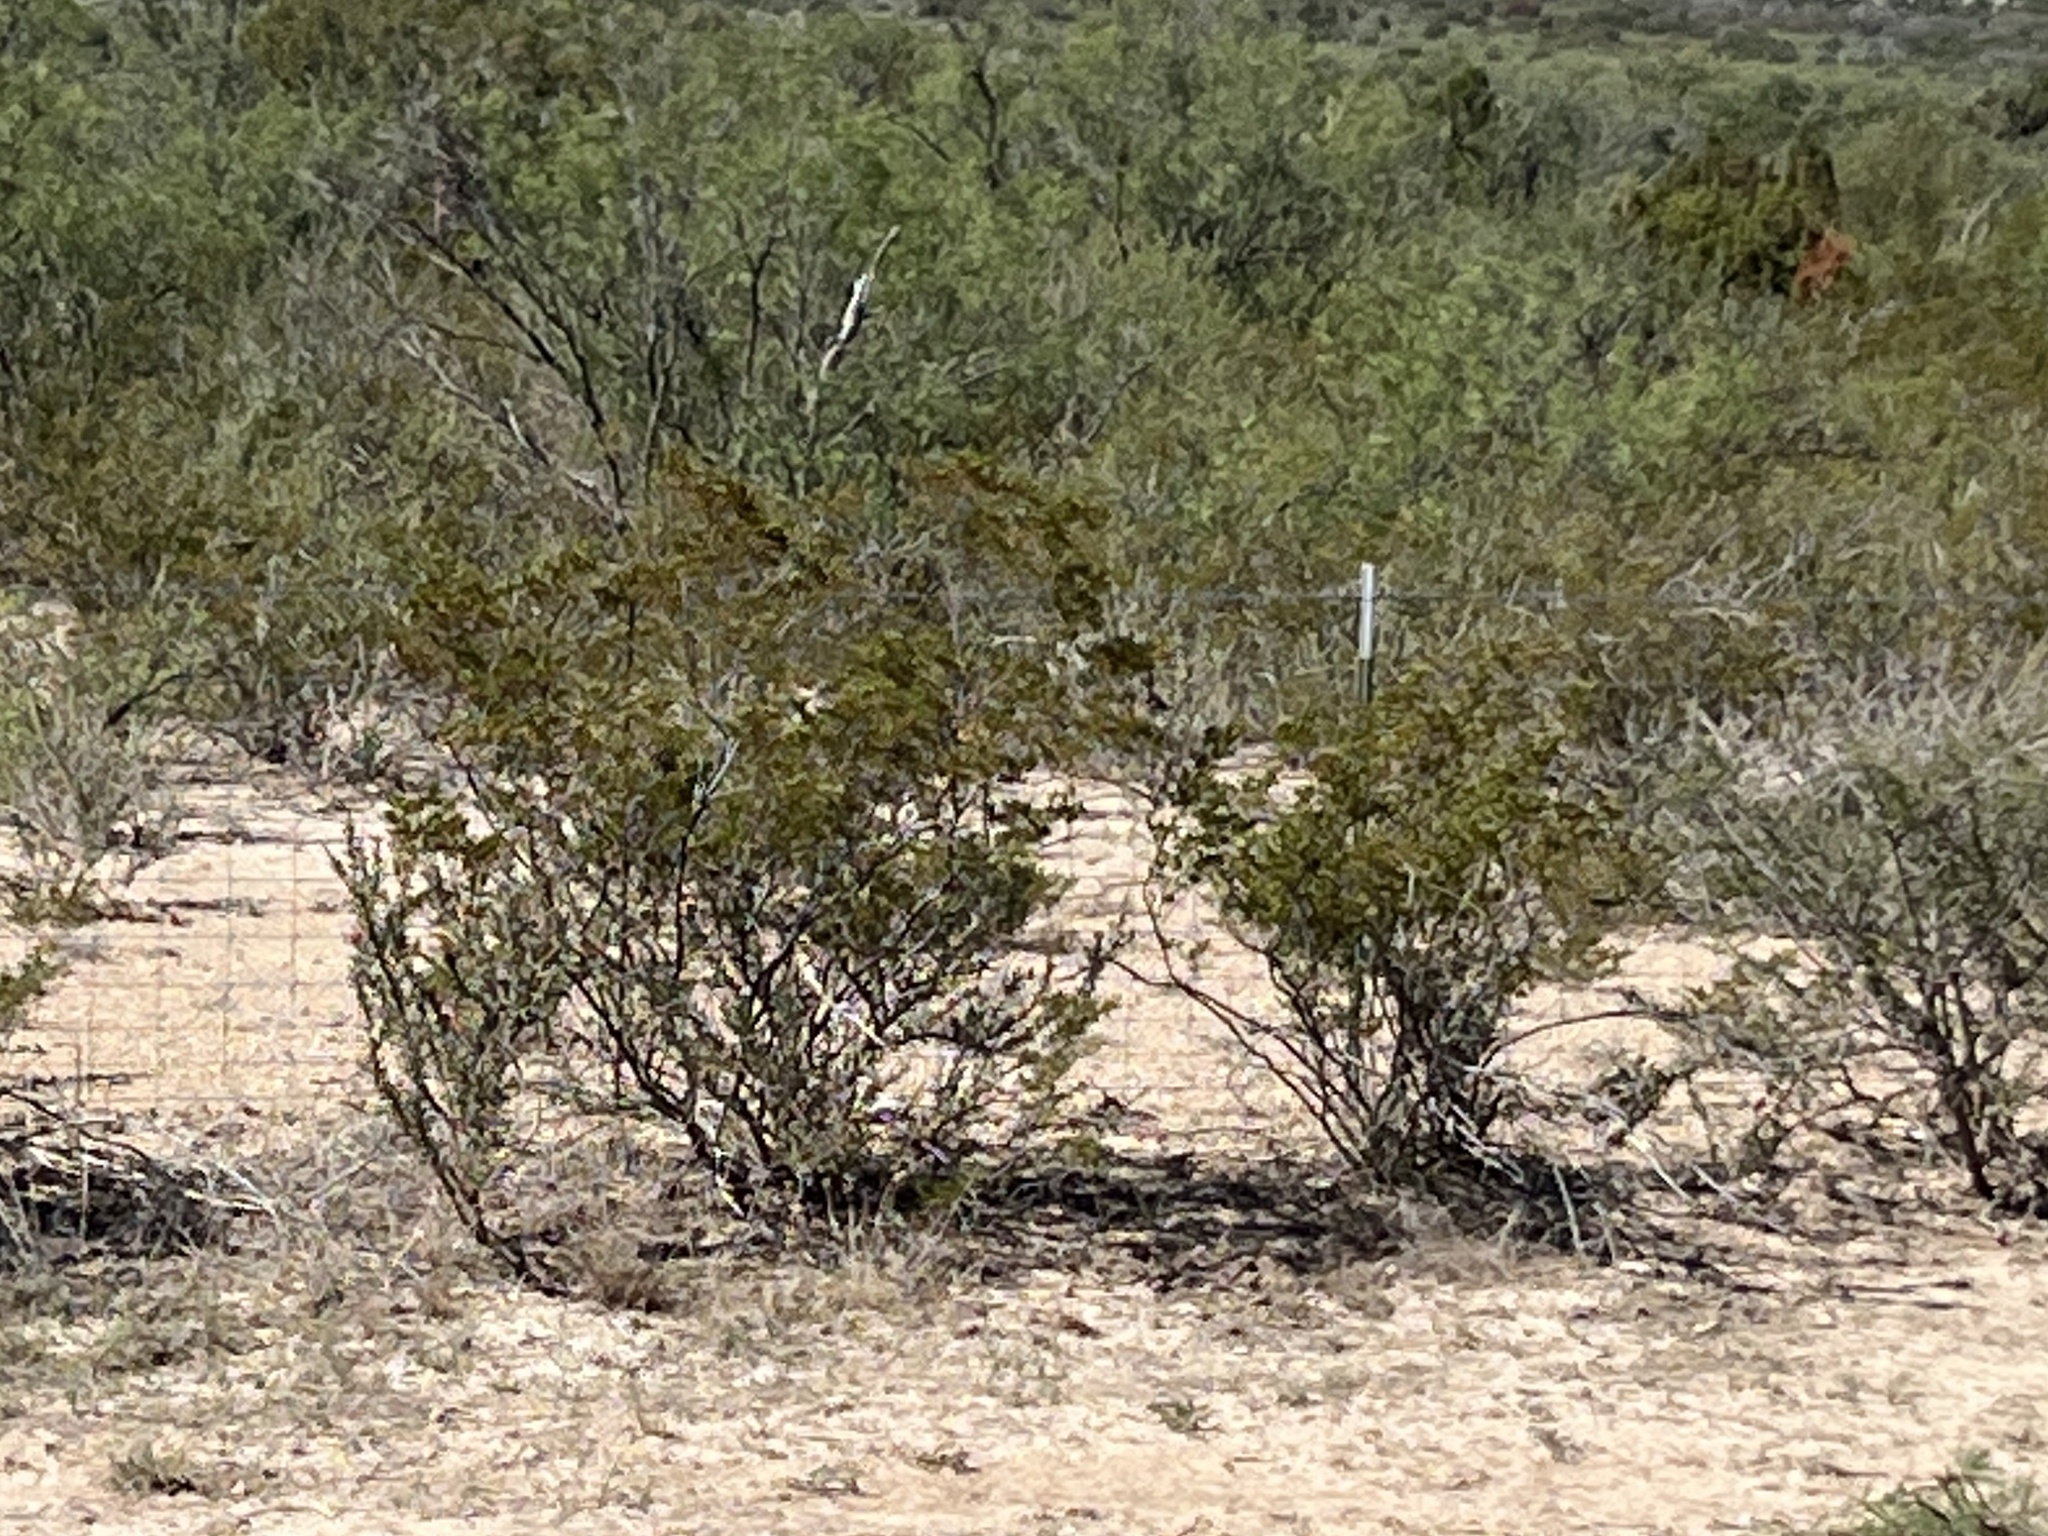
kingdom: Plantae
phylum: Tracheophyta
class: Magnoliopsida
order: Zygophyllales
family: Zygophyllaceae
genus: Larrea
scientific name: Larrea tridentata
